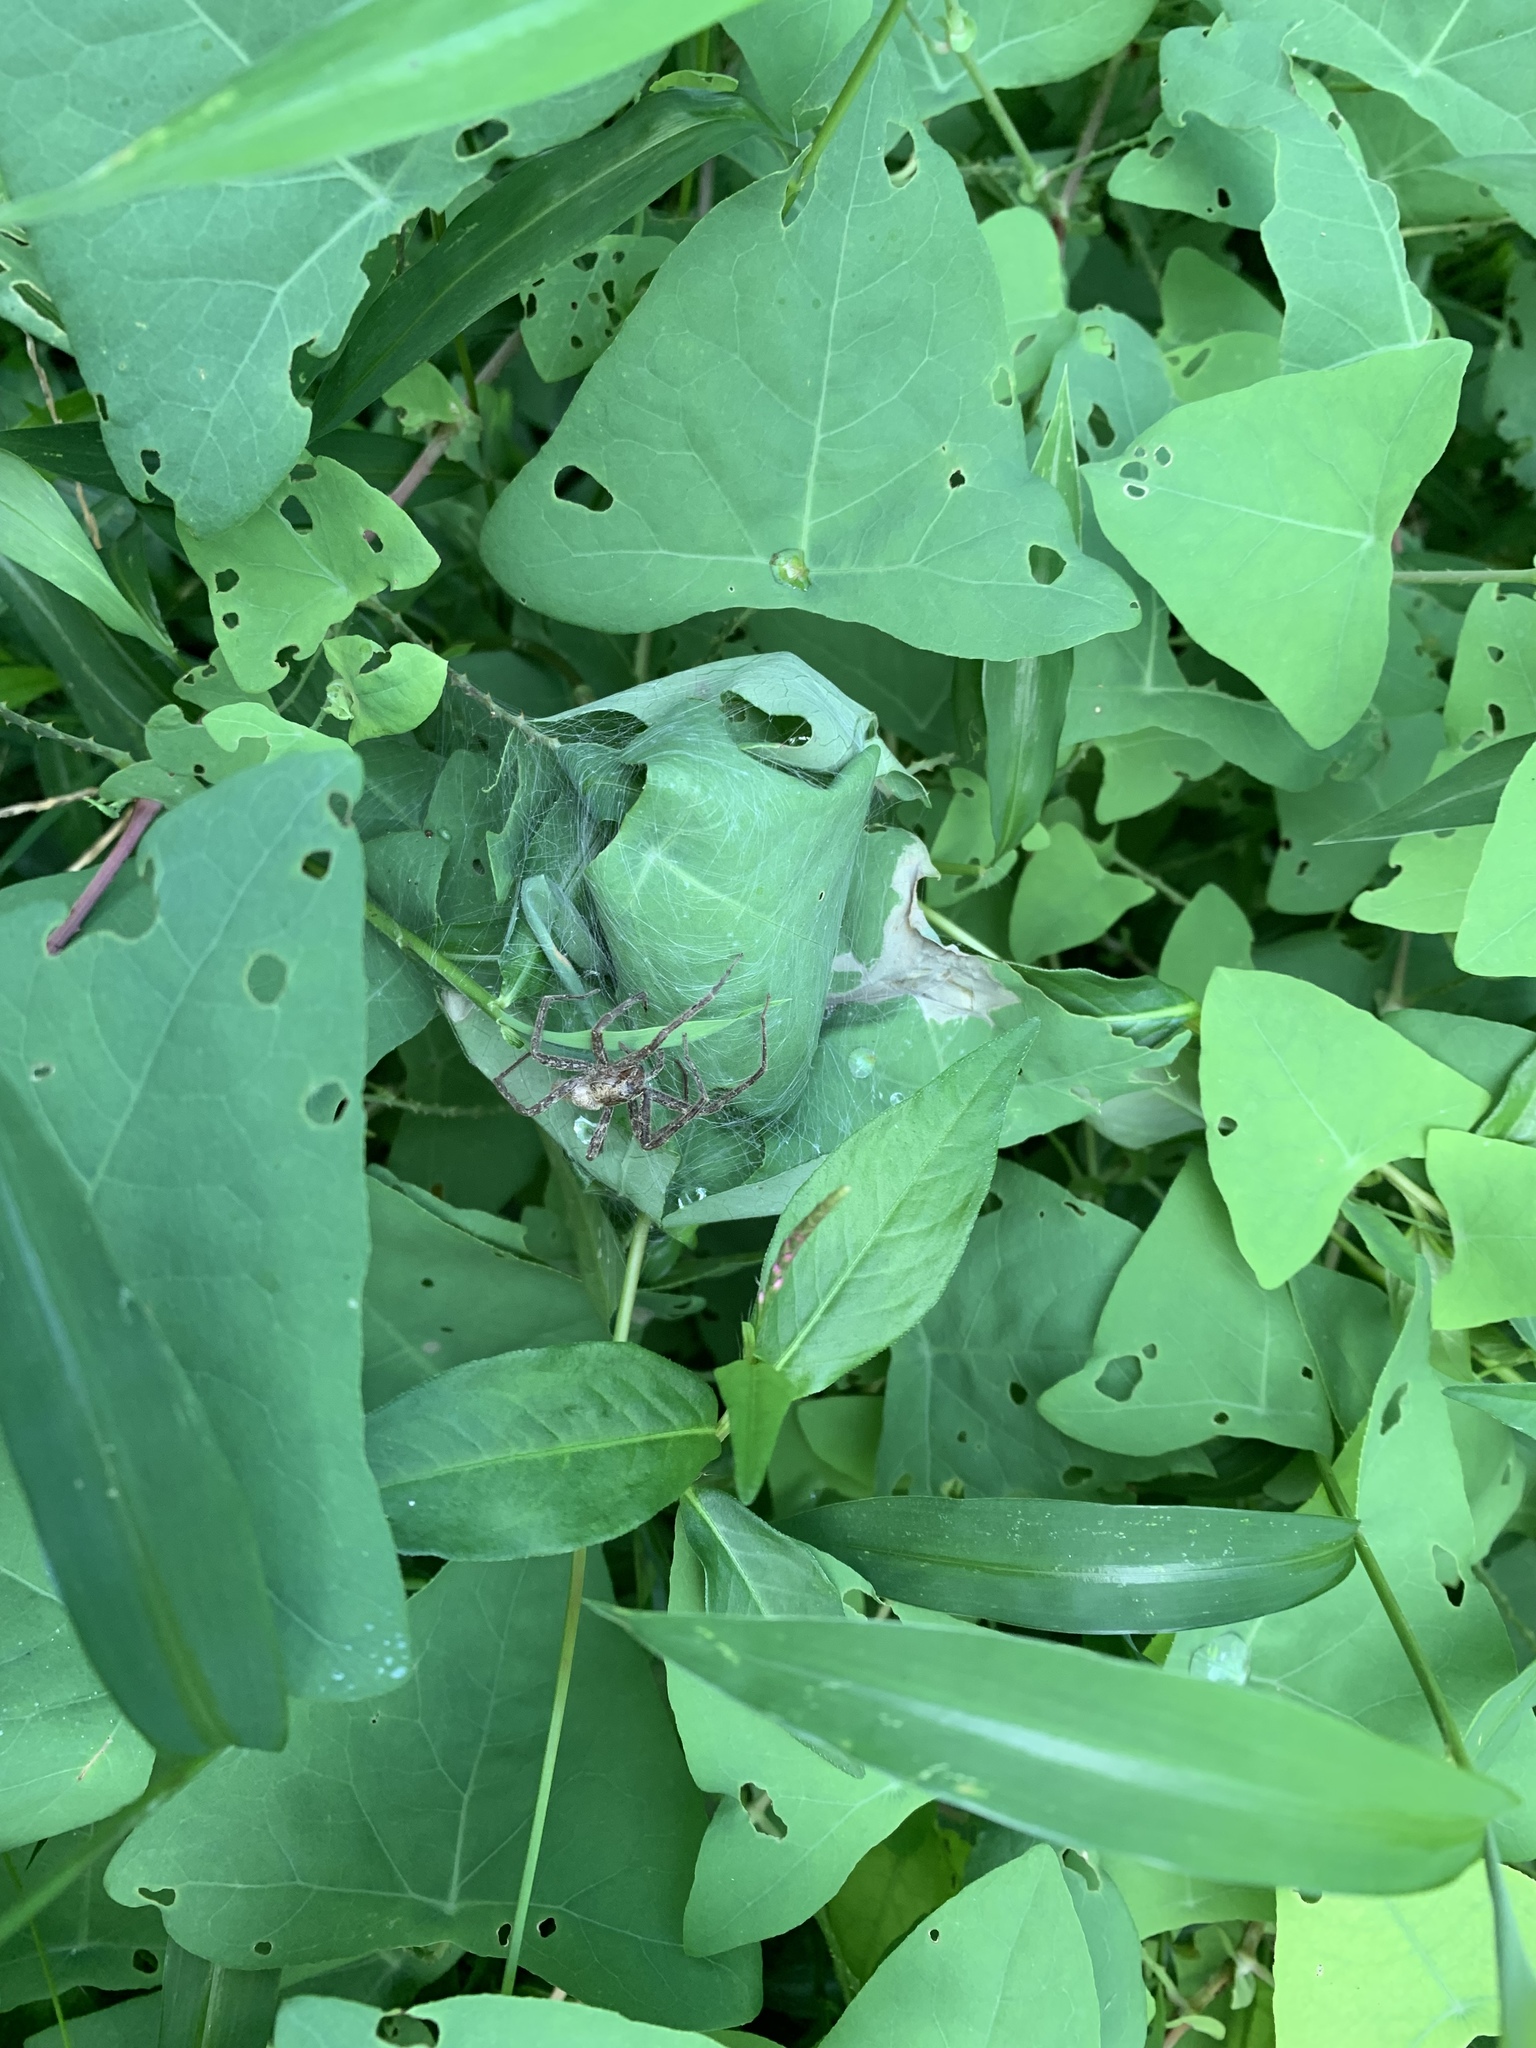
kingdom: Animalia
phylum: Arthropoda
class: Arachnida
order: Araneae
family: Pisauridae
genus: Pisaurina
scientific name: Pisaurina mira
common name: American nursery web spider
